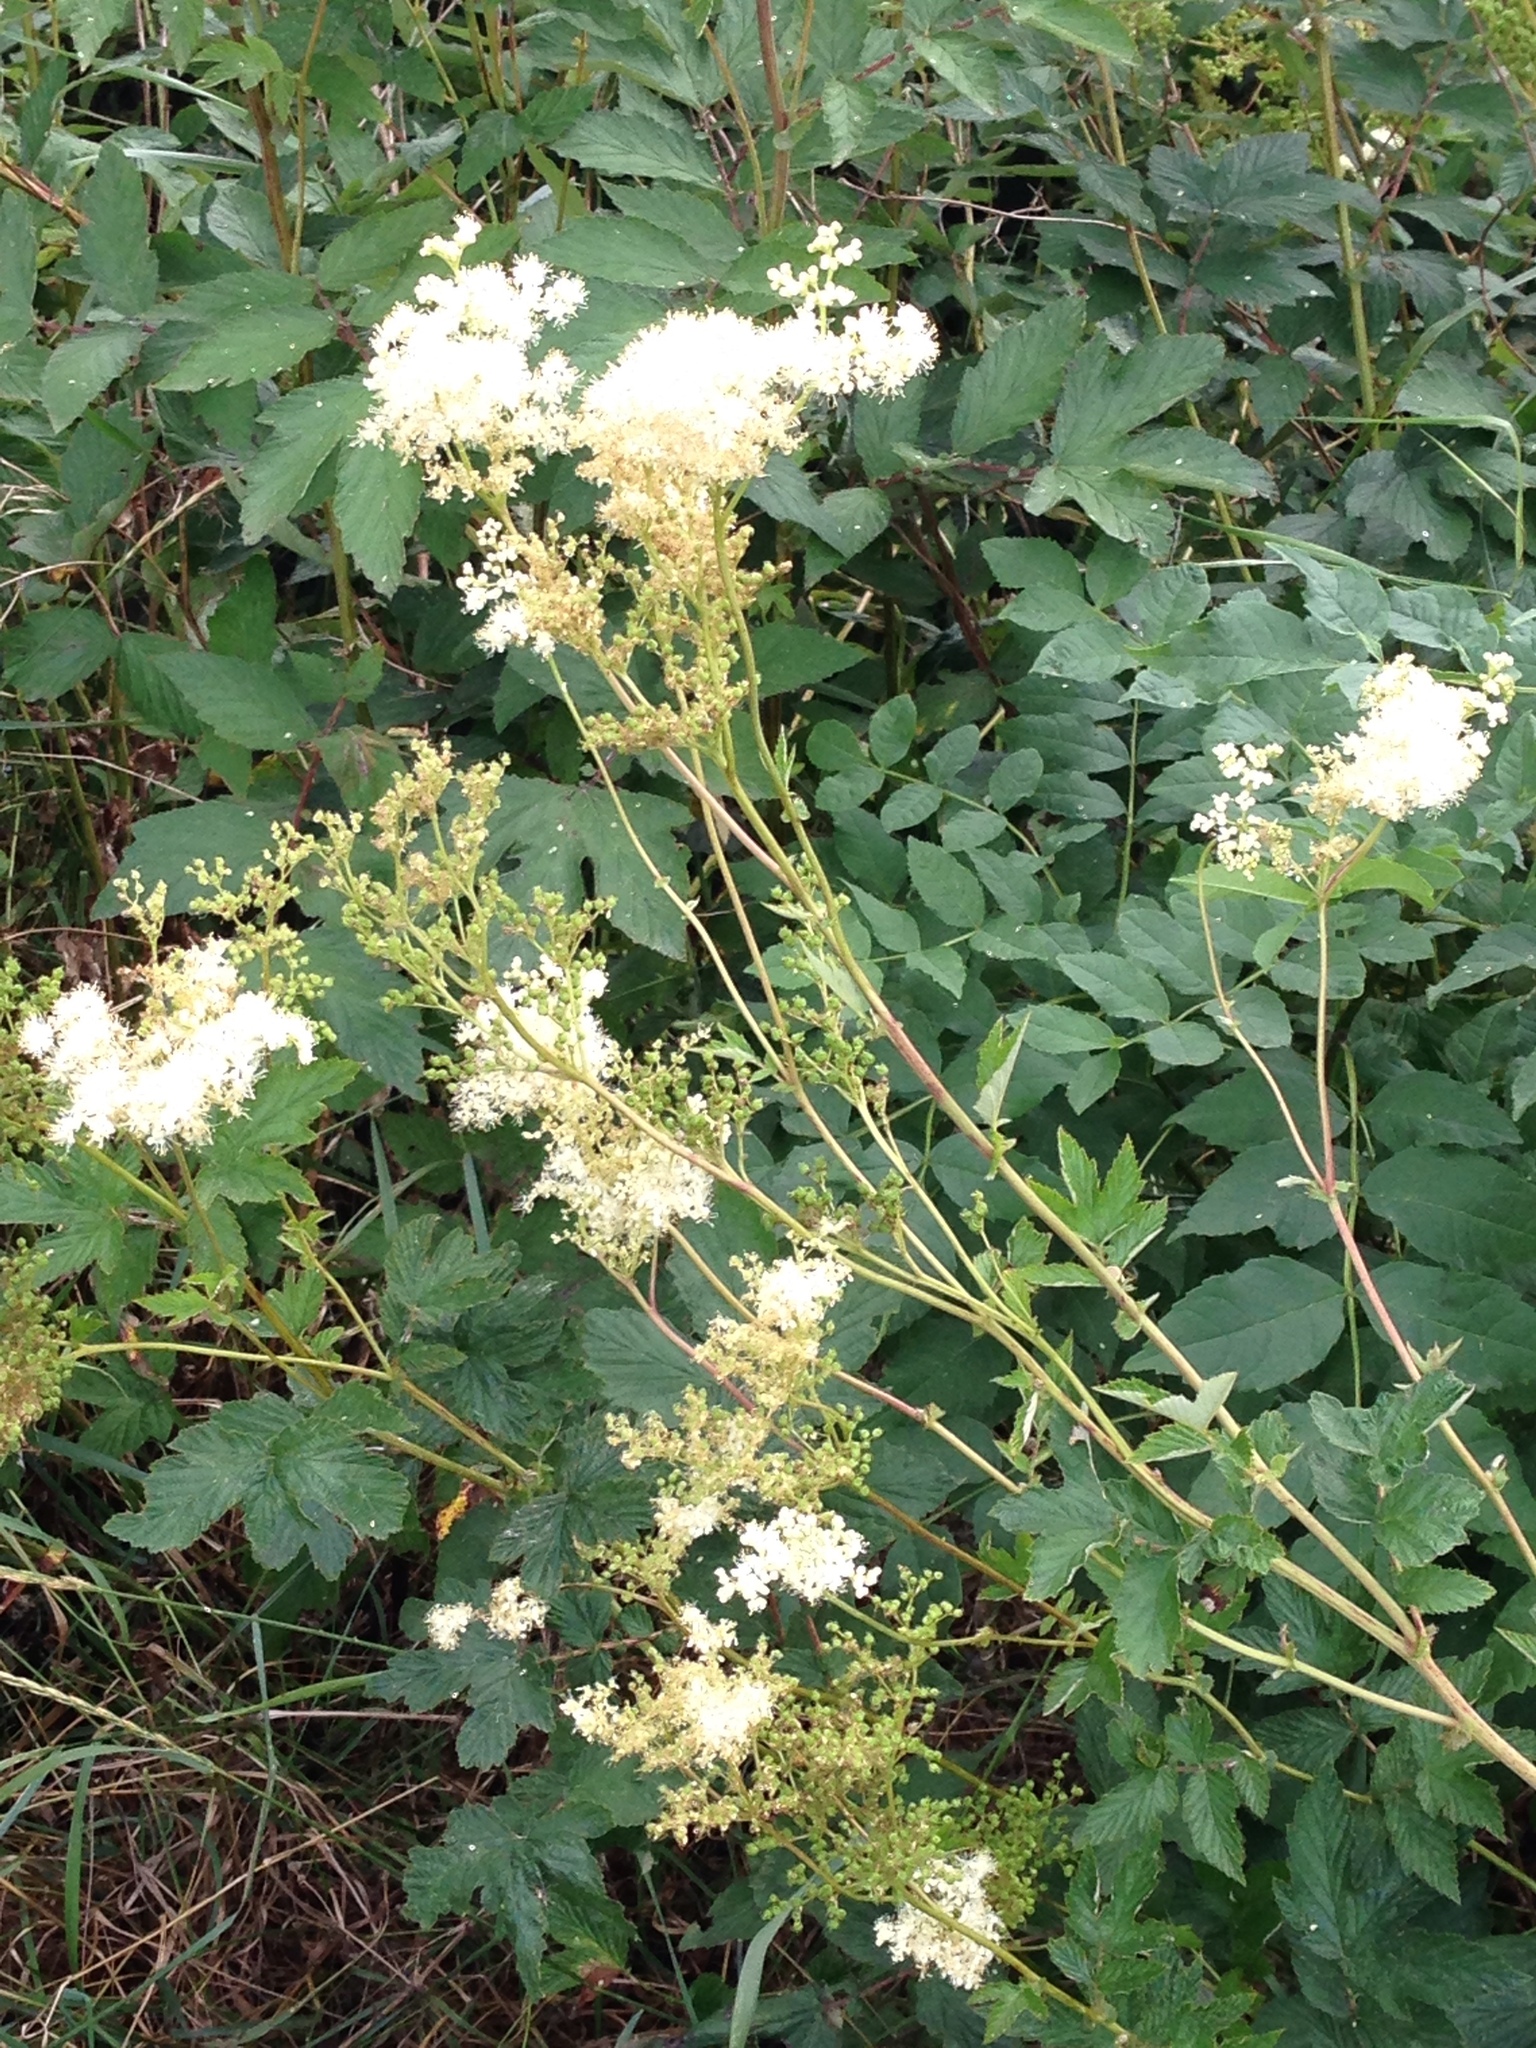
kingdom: Plantae
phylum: Tracheophyta
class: Magnoliopsida
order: Rosales
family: Rosaceae
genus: Filipendula
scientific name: Filipendula ulmaria
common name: Meadowsweet
